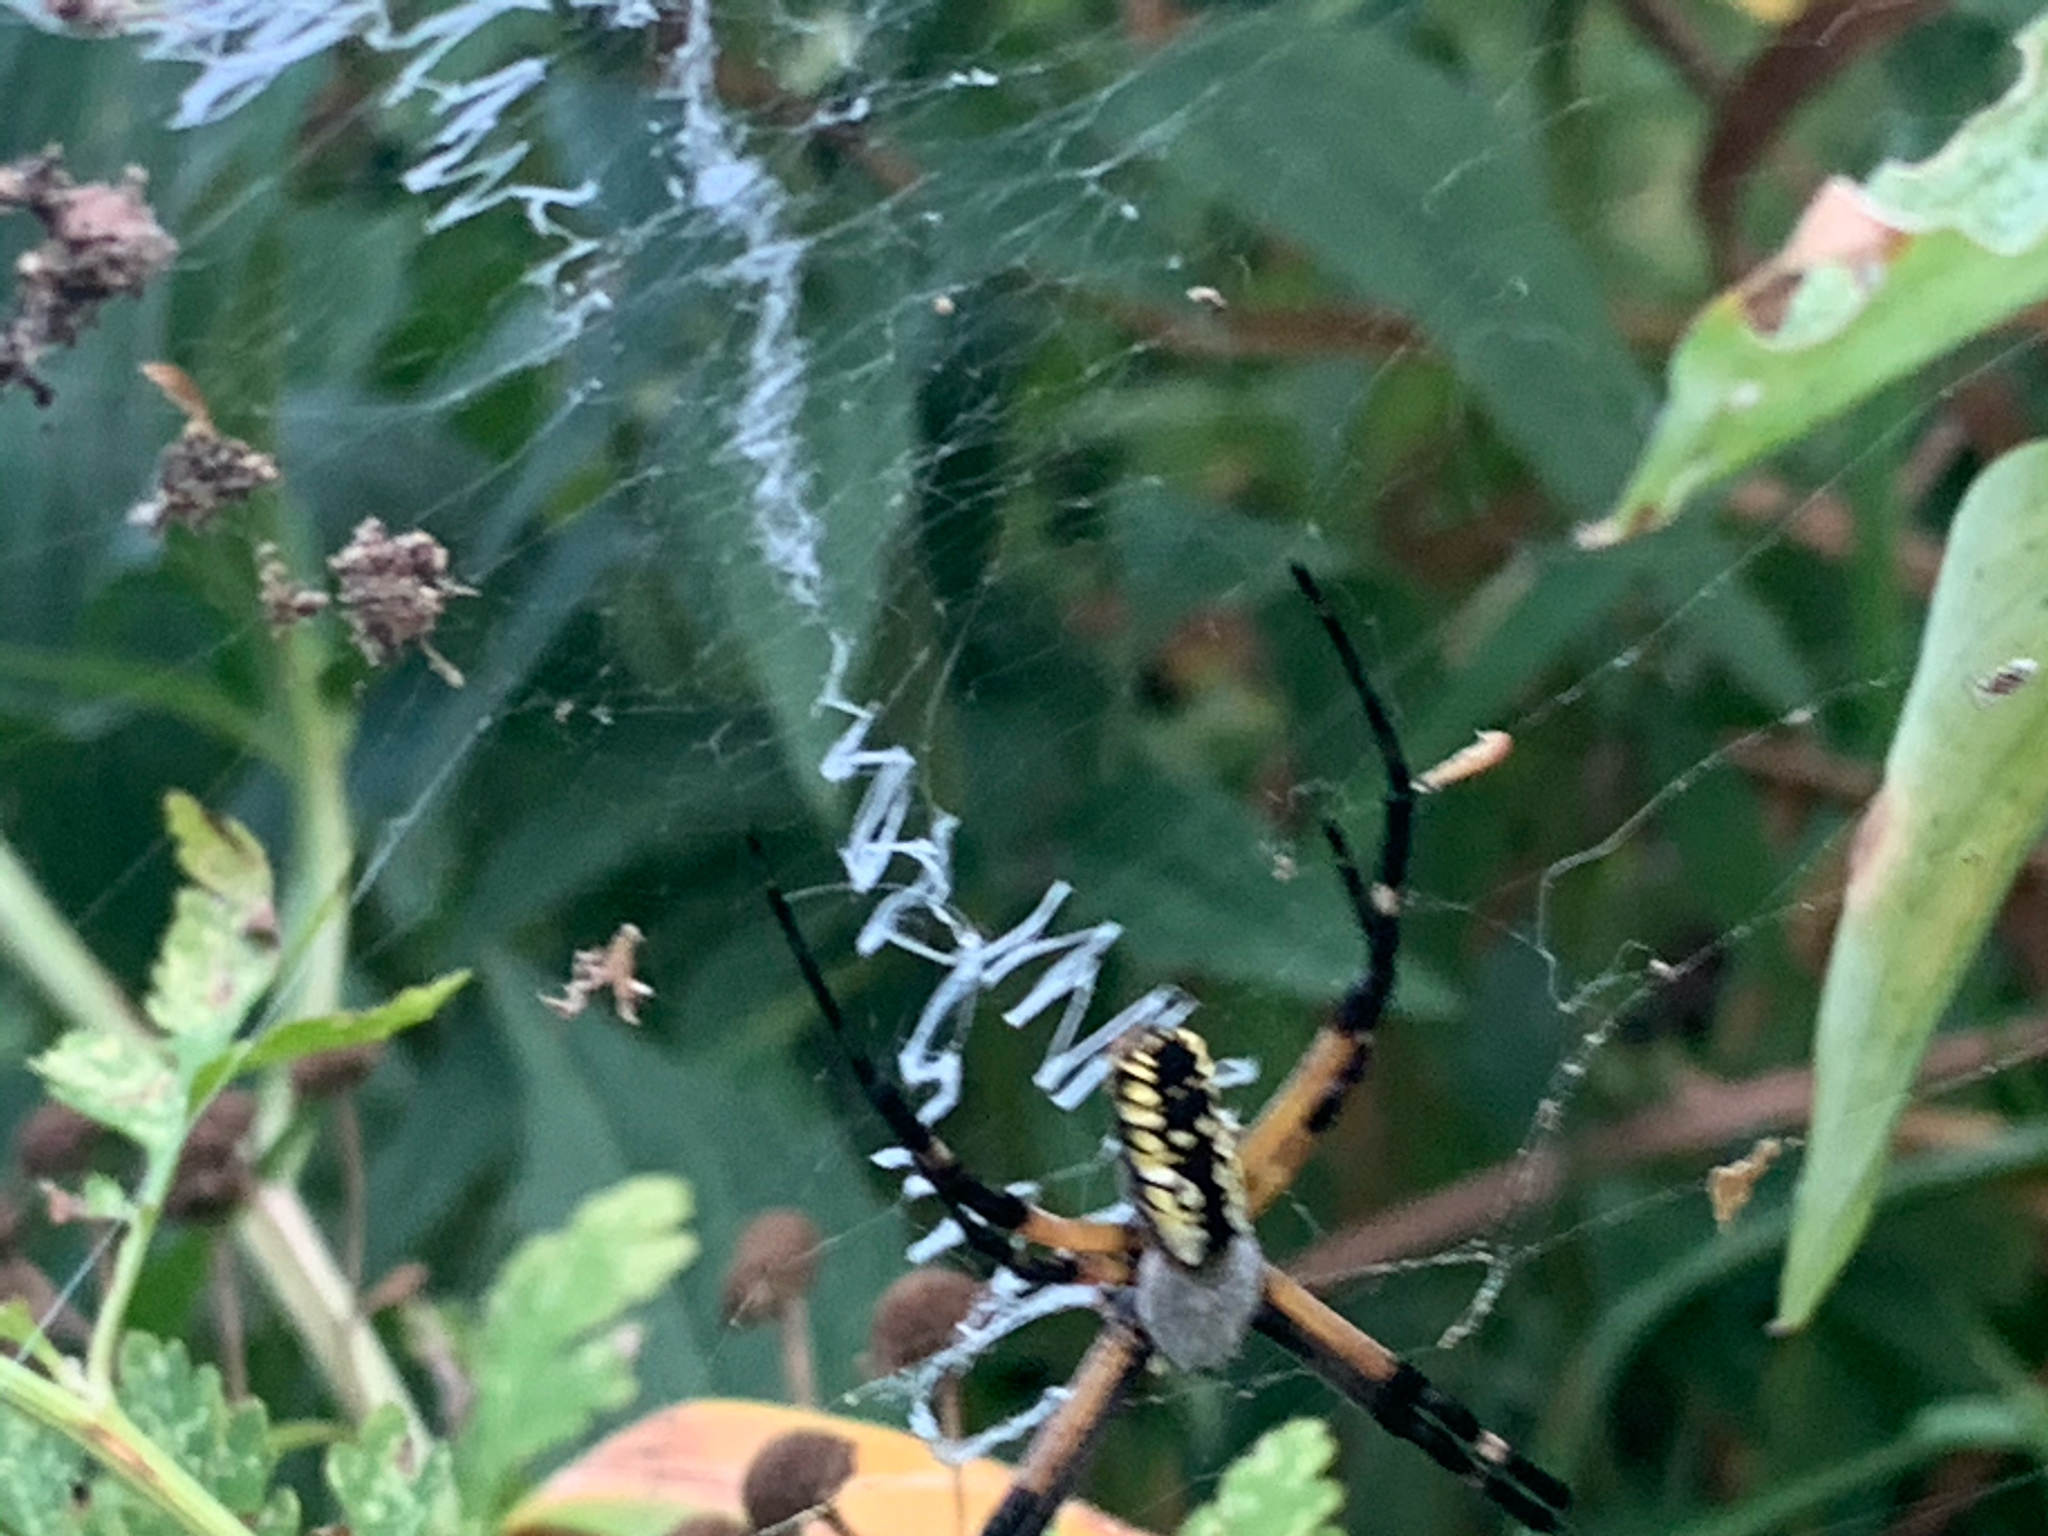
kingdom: Animalia
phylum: Arthropoda
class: Arachnida
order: Araneae
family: Araneidae
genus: Argiope
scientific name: Argiope aurantia
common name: Orb weavers
